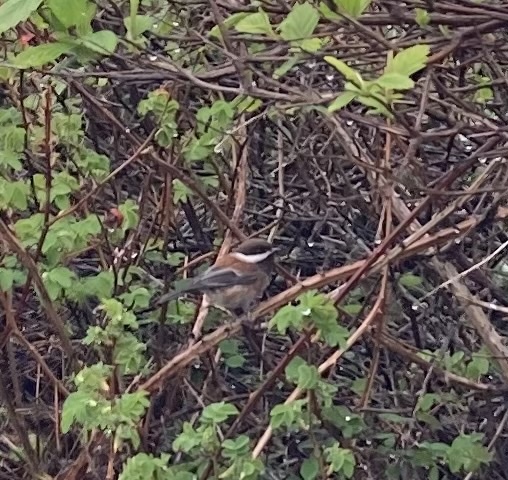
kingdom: Animalia
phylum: Chordata
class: Aves
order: Passeriformes
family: Paridae
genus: Poecile
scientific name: Poecile rufescens
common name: Chestnut-backed chickadee
